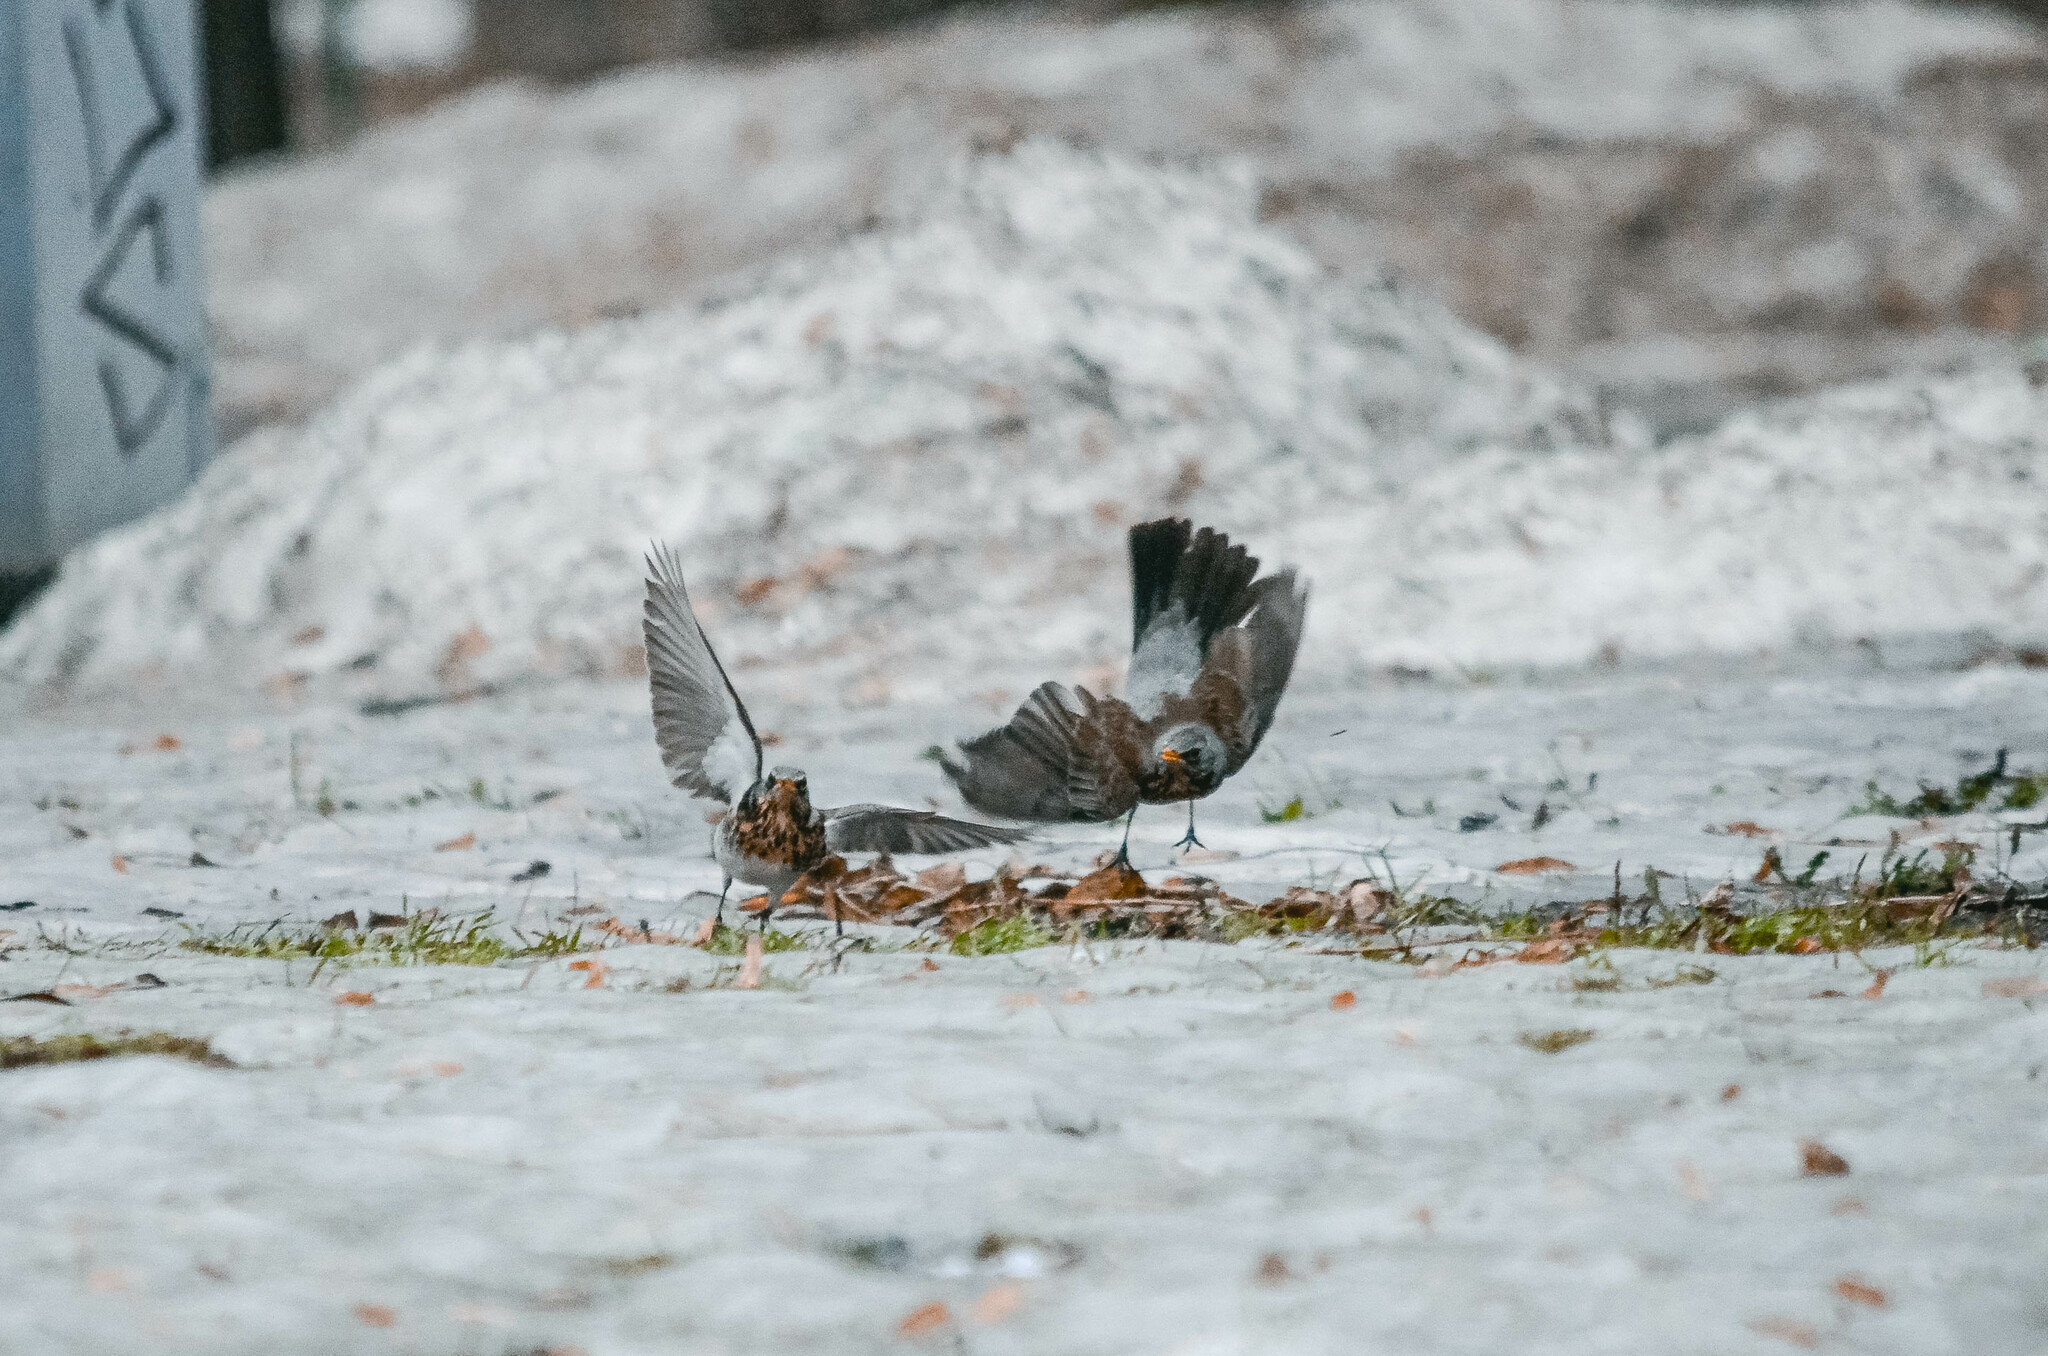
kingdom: Animalia
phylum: Chordata
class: Aves
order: Passeriformes
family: Turdidae
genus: Turdus
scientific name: Turdus pilaris
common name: Fieldfare
